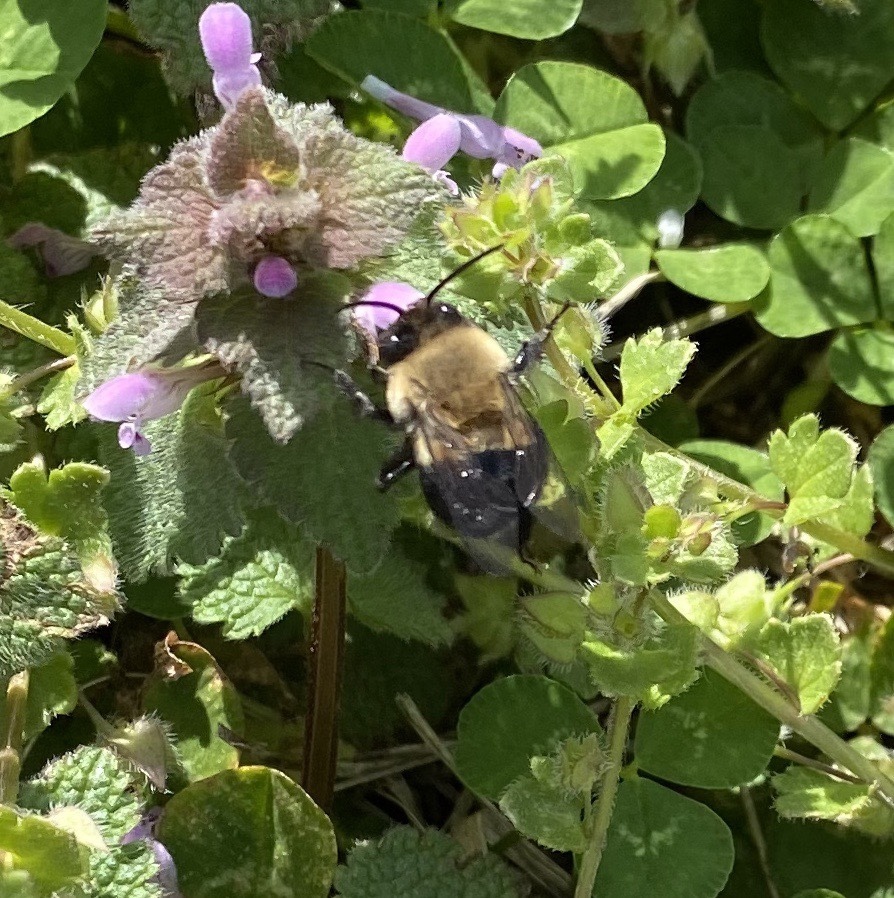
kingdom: Animalia
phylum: Arthropoda
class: Insecta
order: Hymenoptera
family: Apidae
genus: Habropoda
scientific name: Habropoda laboriosa
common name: Southeastern blueberry bee
